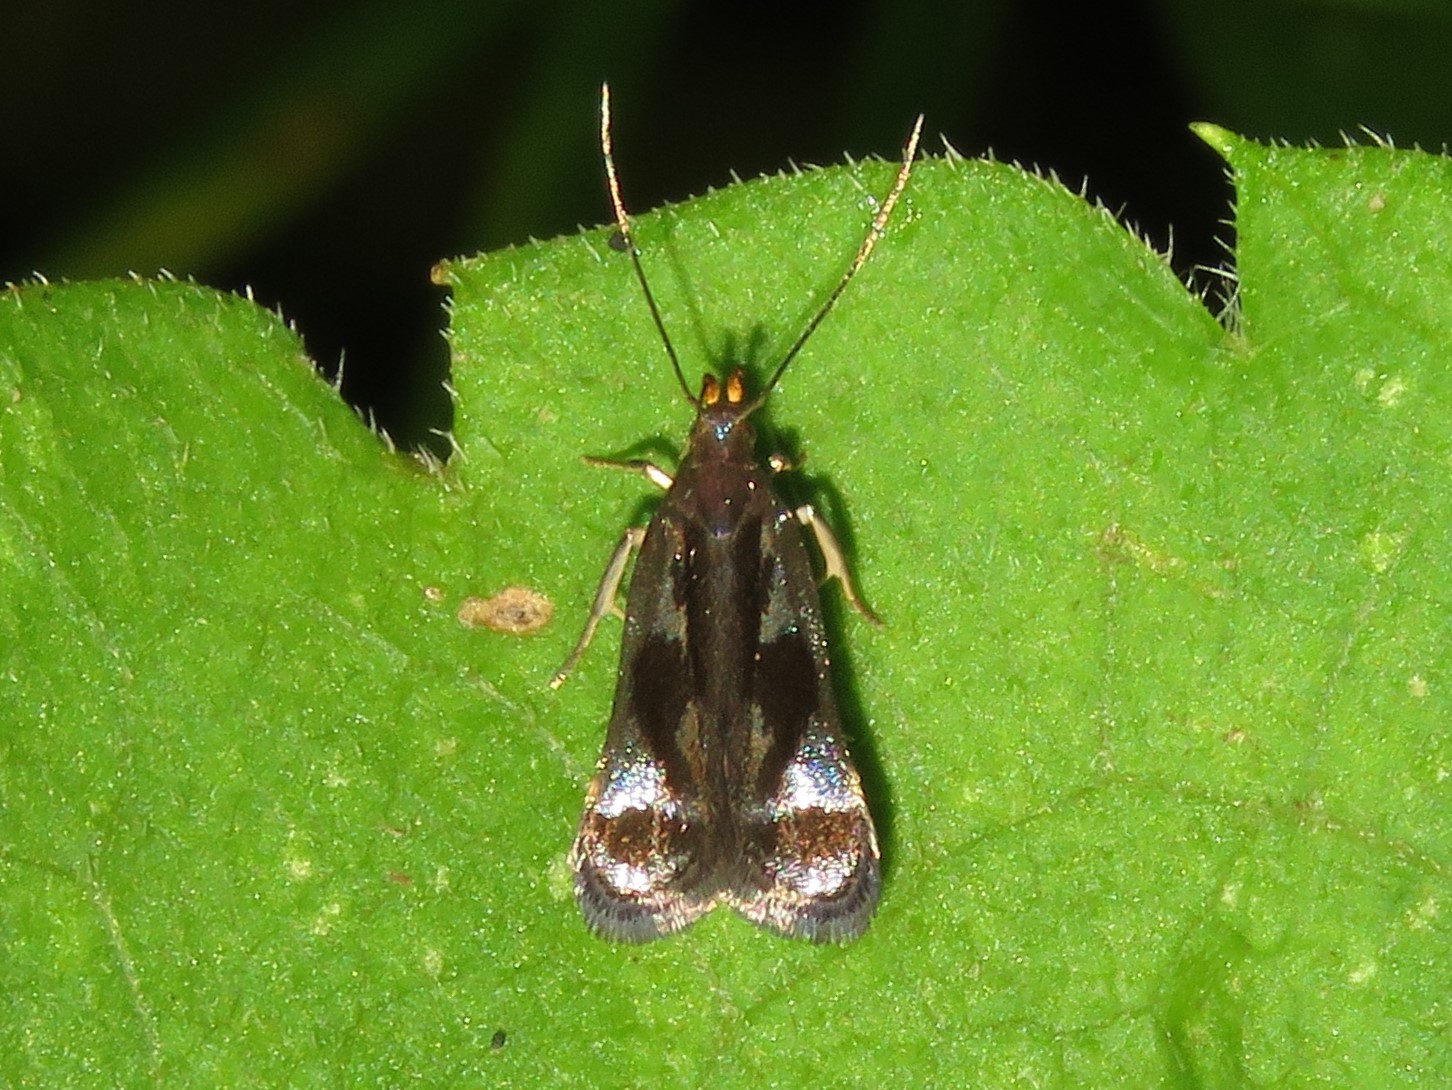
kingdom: Animalia
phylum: Arthropoda
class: Insecta
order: Lepidoptera
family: Gelechiidae
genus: Dichomeris
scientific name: Dichomeris ochripalpella
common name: Shining dichomeris moth
